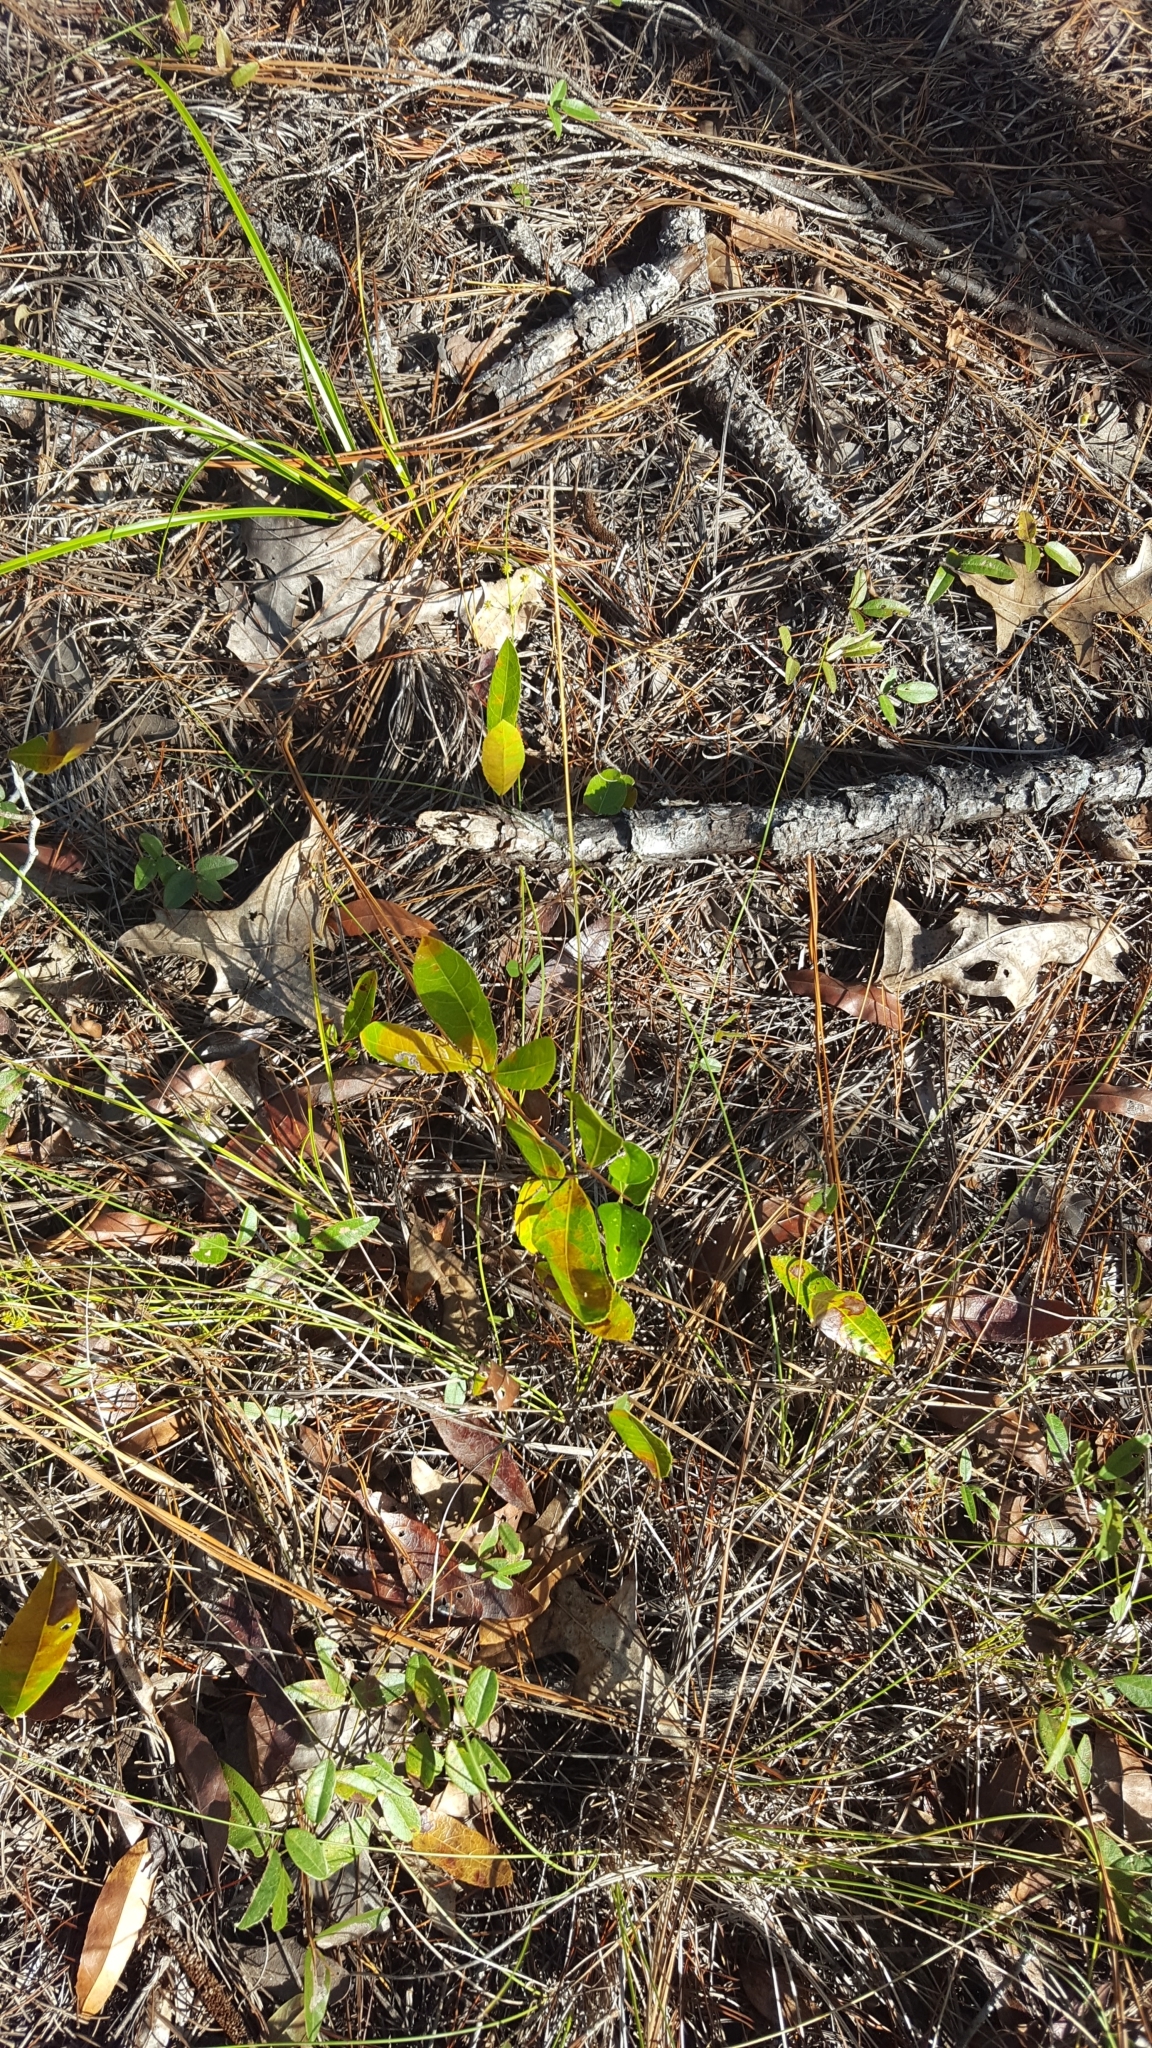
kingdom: Plantae
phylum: Tracheophyta
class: Magnoliopsida
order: Malpighiales
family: Chrysobalanaceae
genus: Geobalanus
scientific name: Geobalanus oblongifolius
